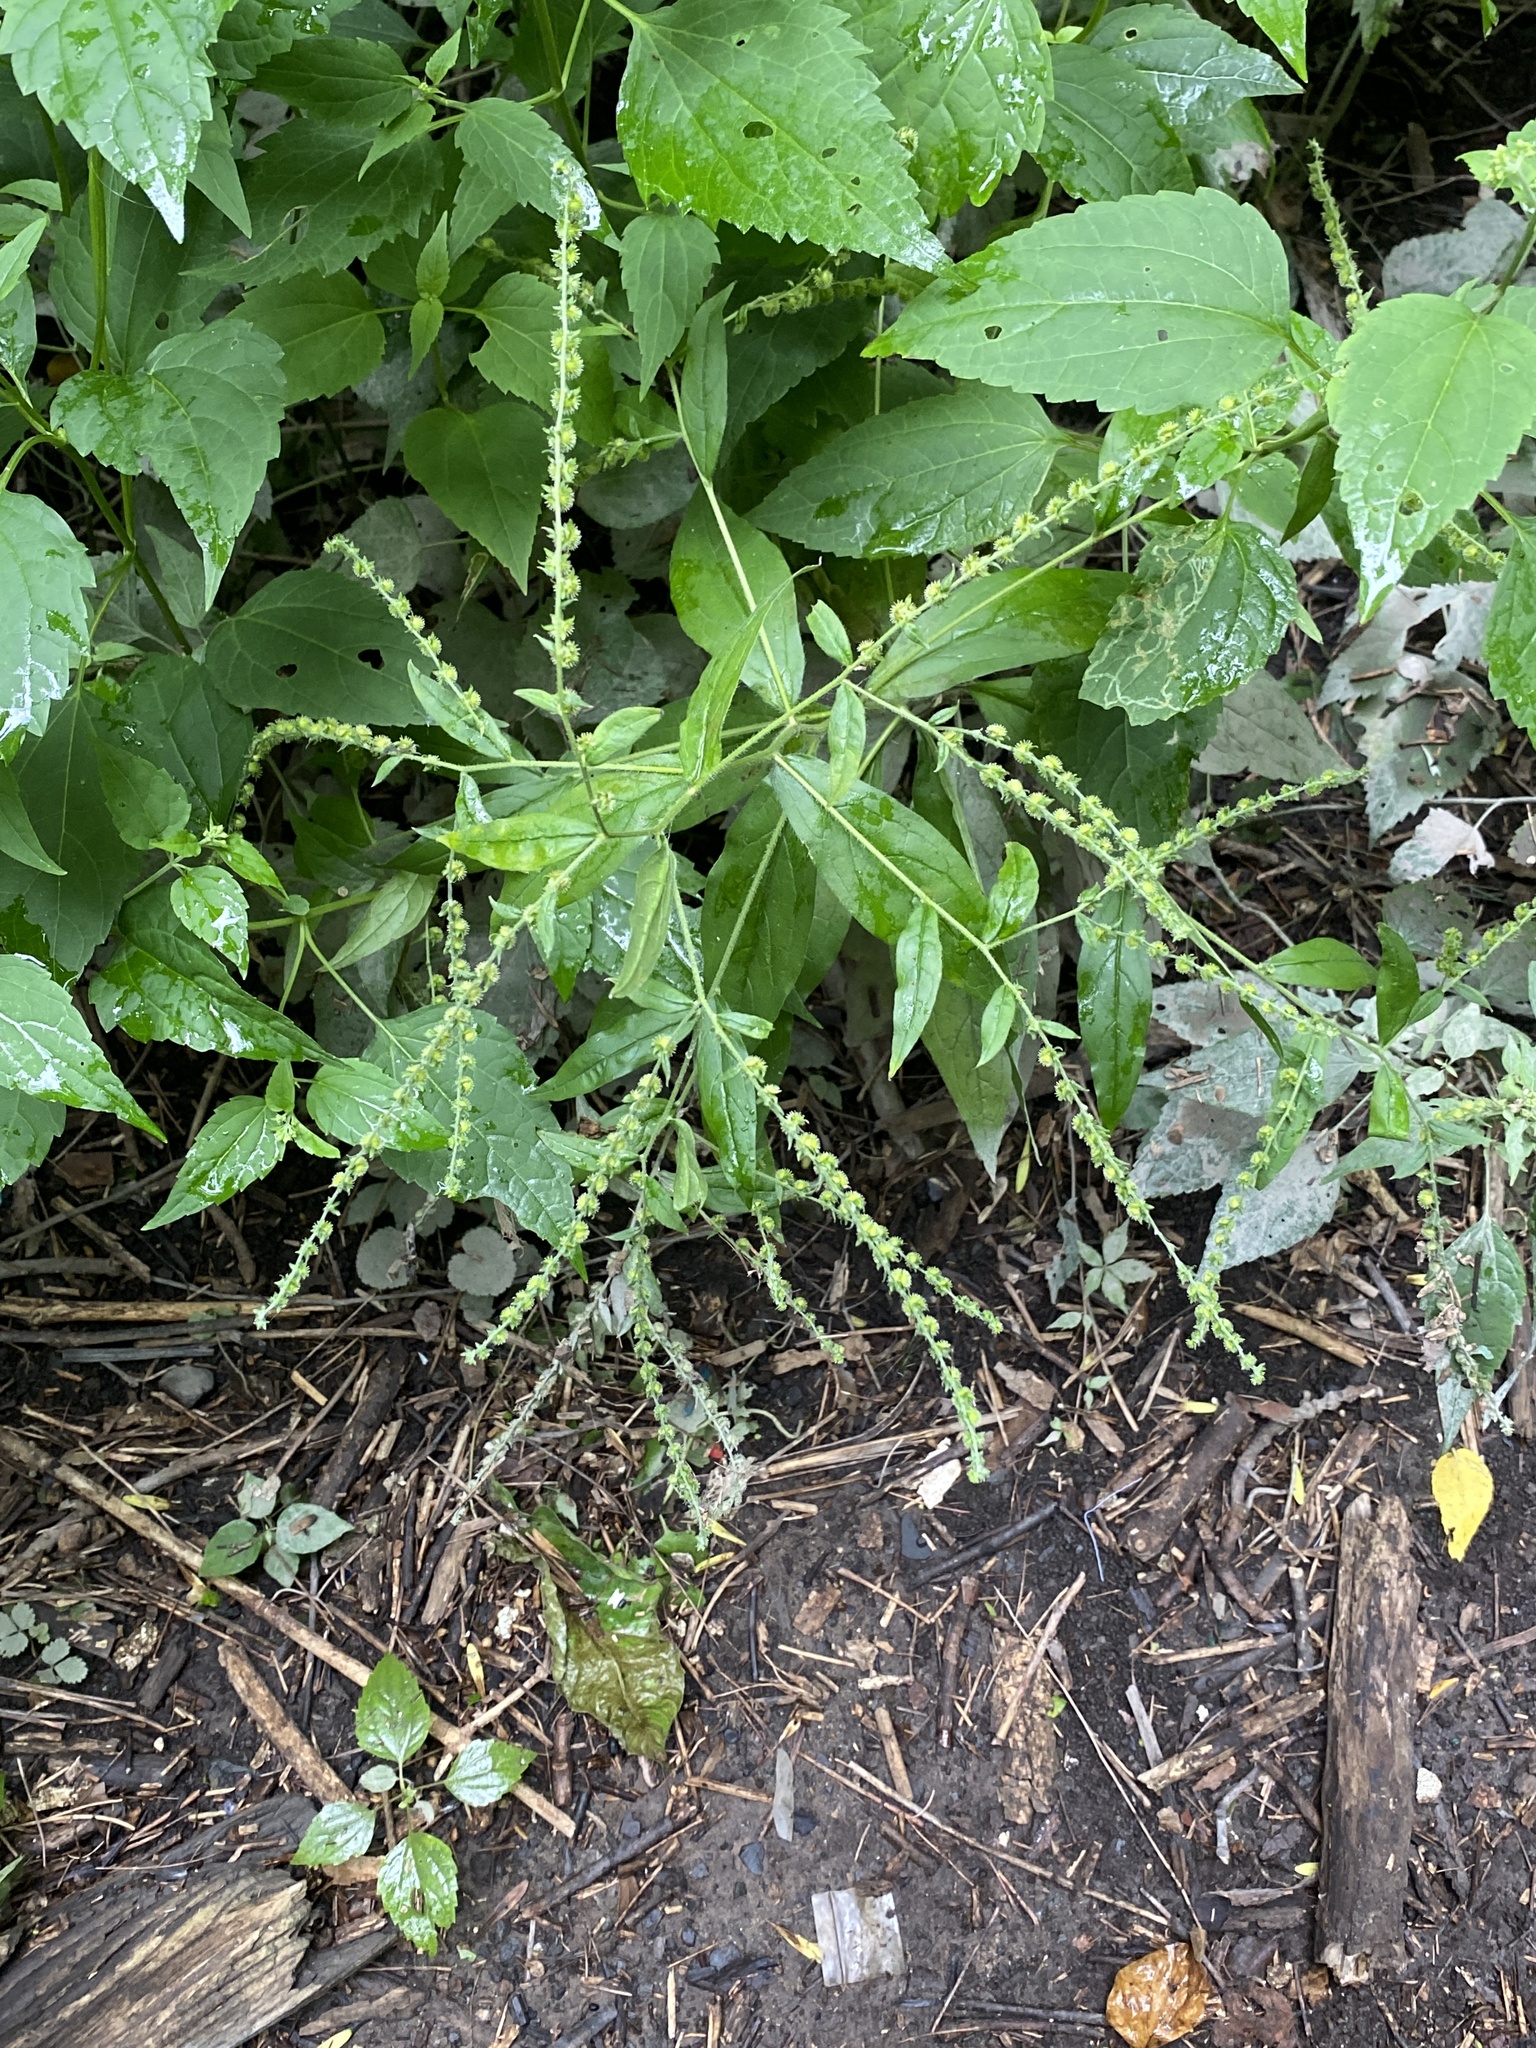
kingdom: Plantae
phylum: Tracheophyta
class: Magnoliopsida
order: Boraginales
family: Boraginaceae
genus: Hackelia
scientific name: Hackelia virginiana
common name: Beggar's-lice
